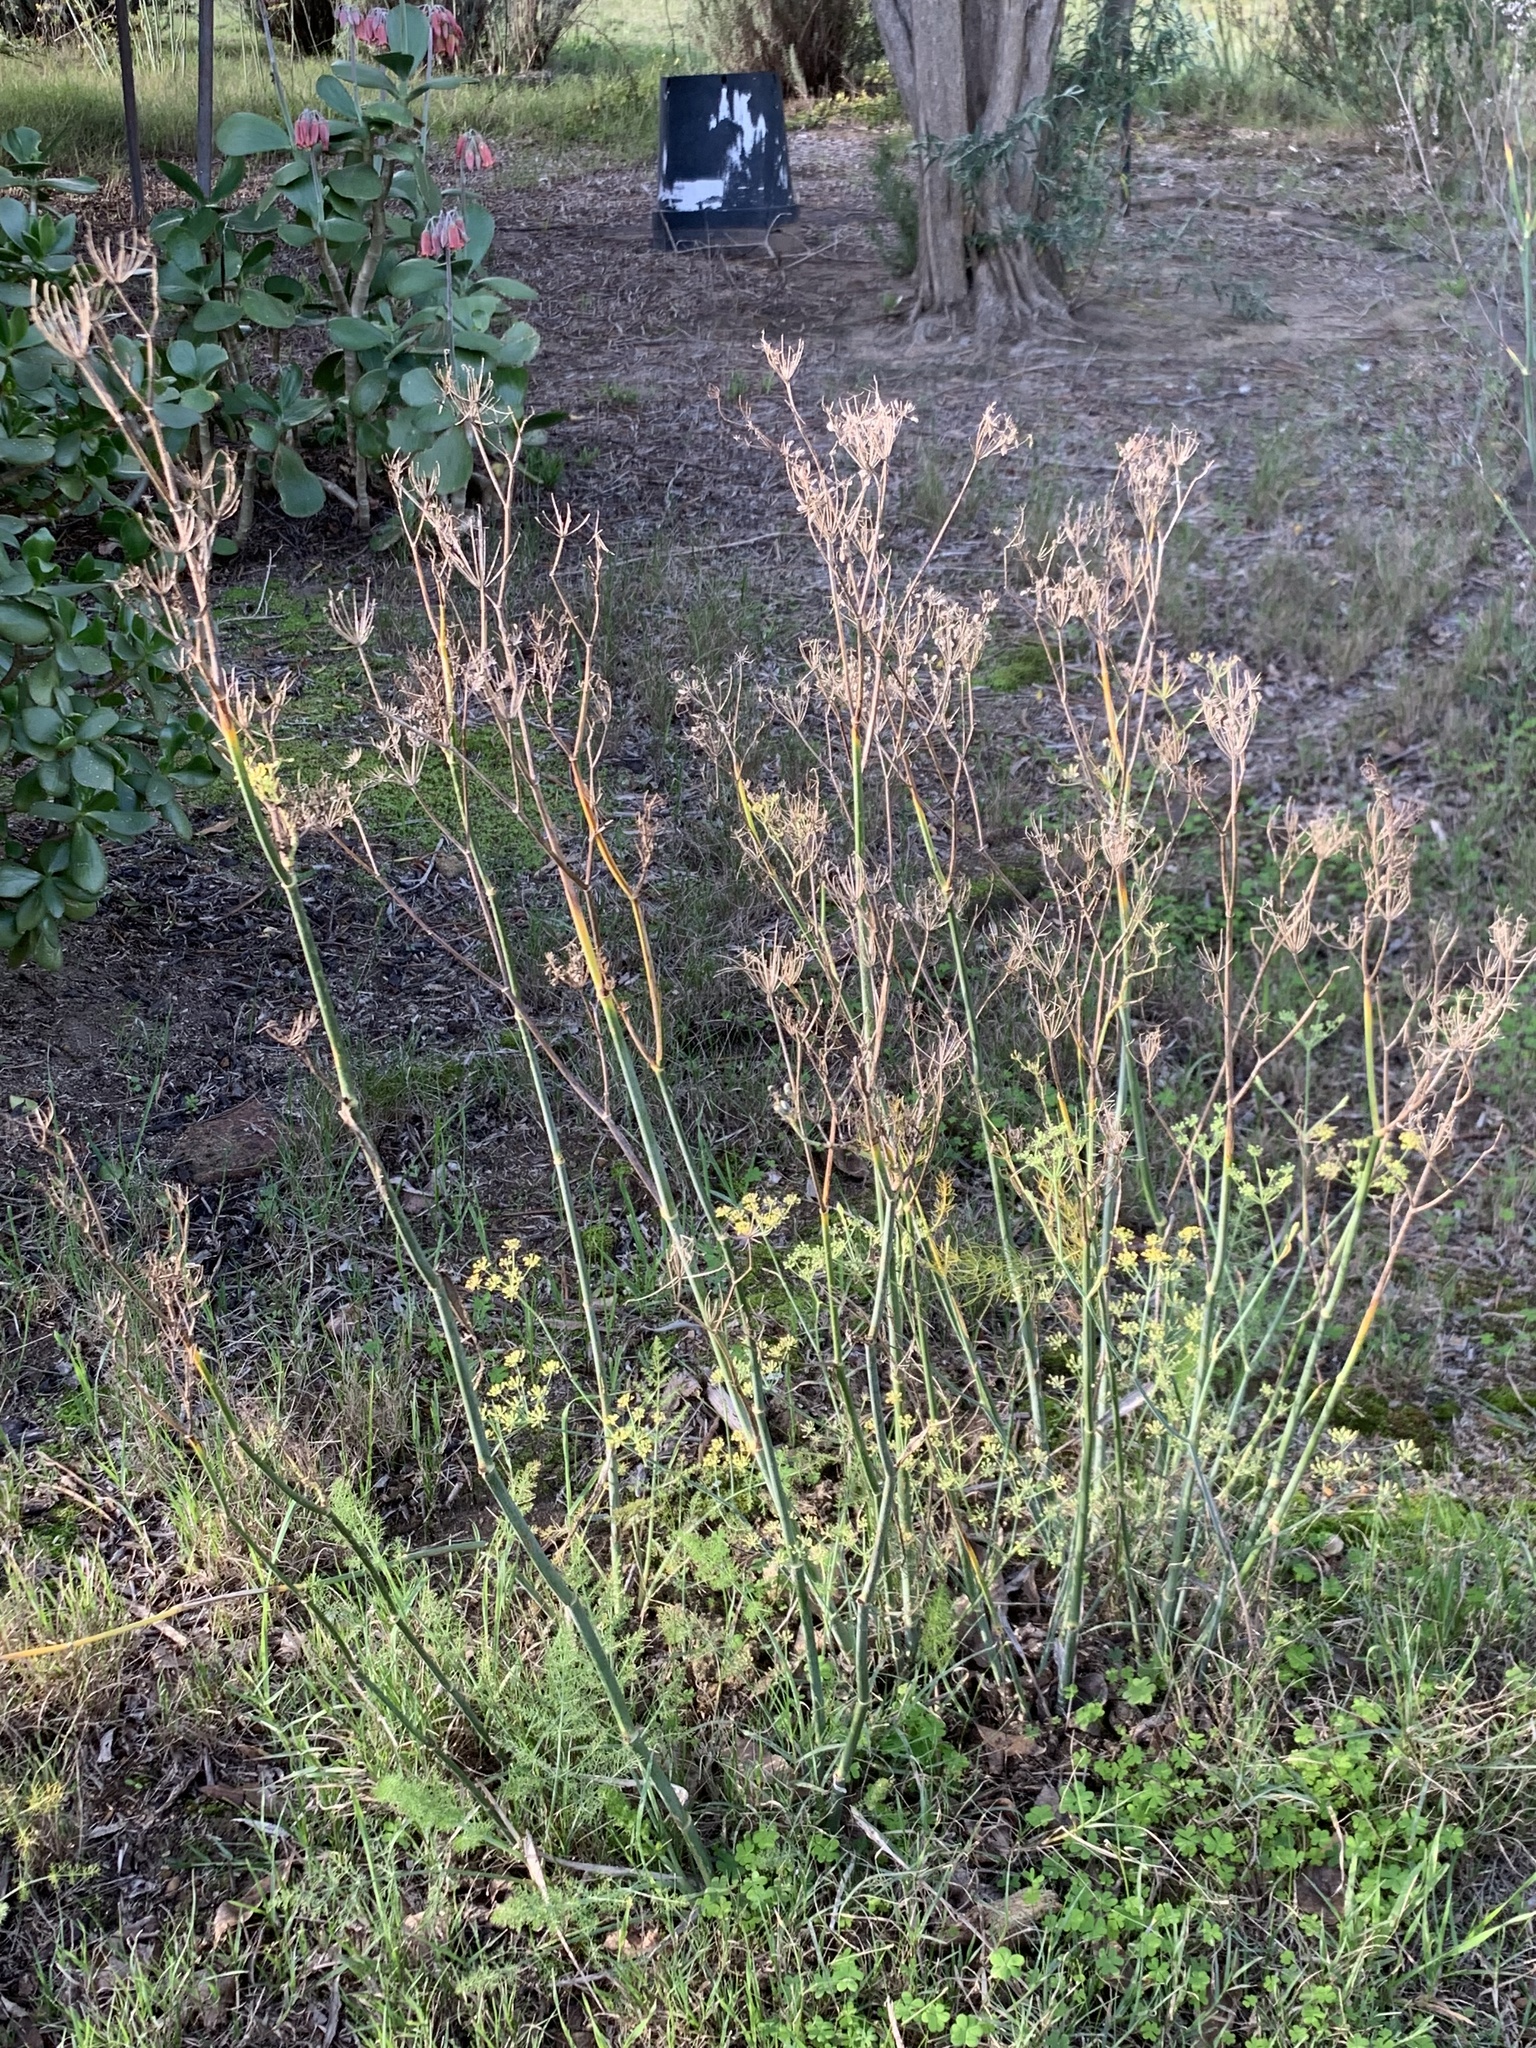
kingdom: Plantae
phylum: Tracheophyta
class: Magnoliopsida
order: Apiales
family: Apiaceae
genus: Foeniculum
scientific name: Foeniculum vulgare
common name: Fennel
